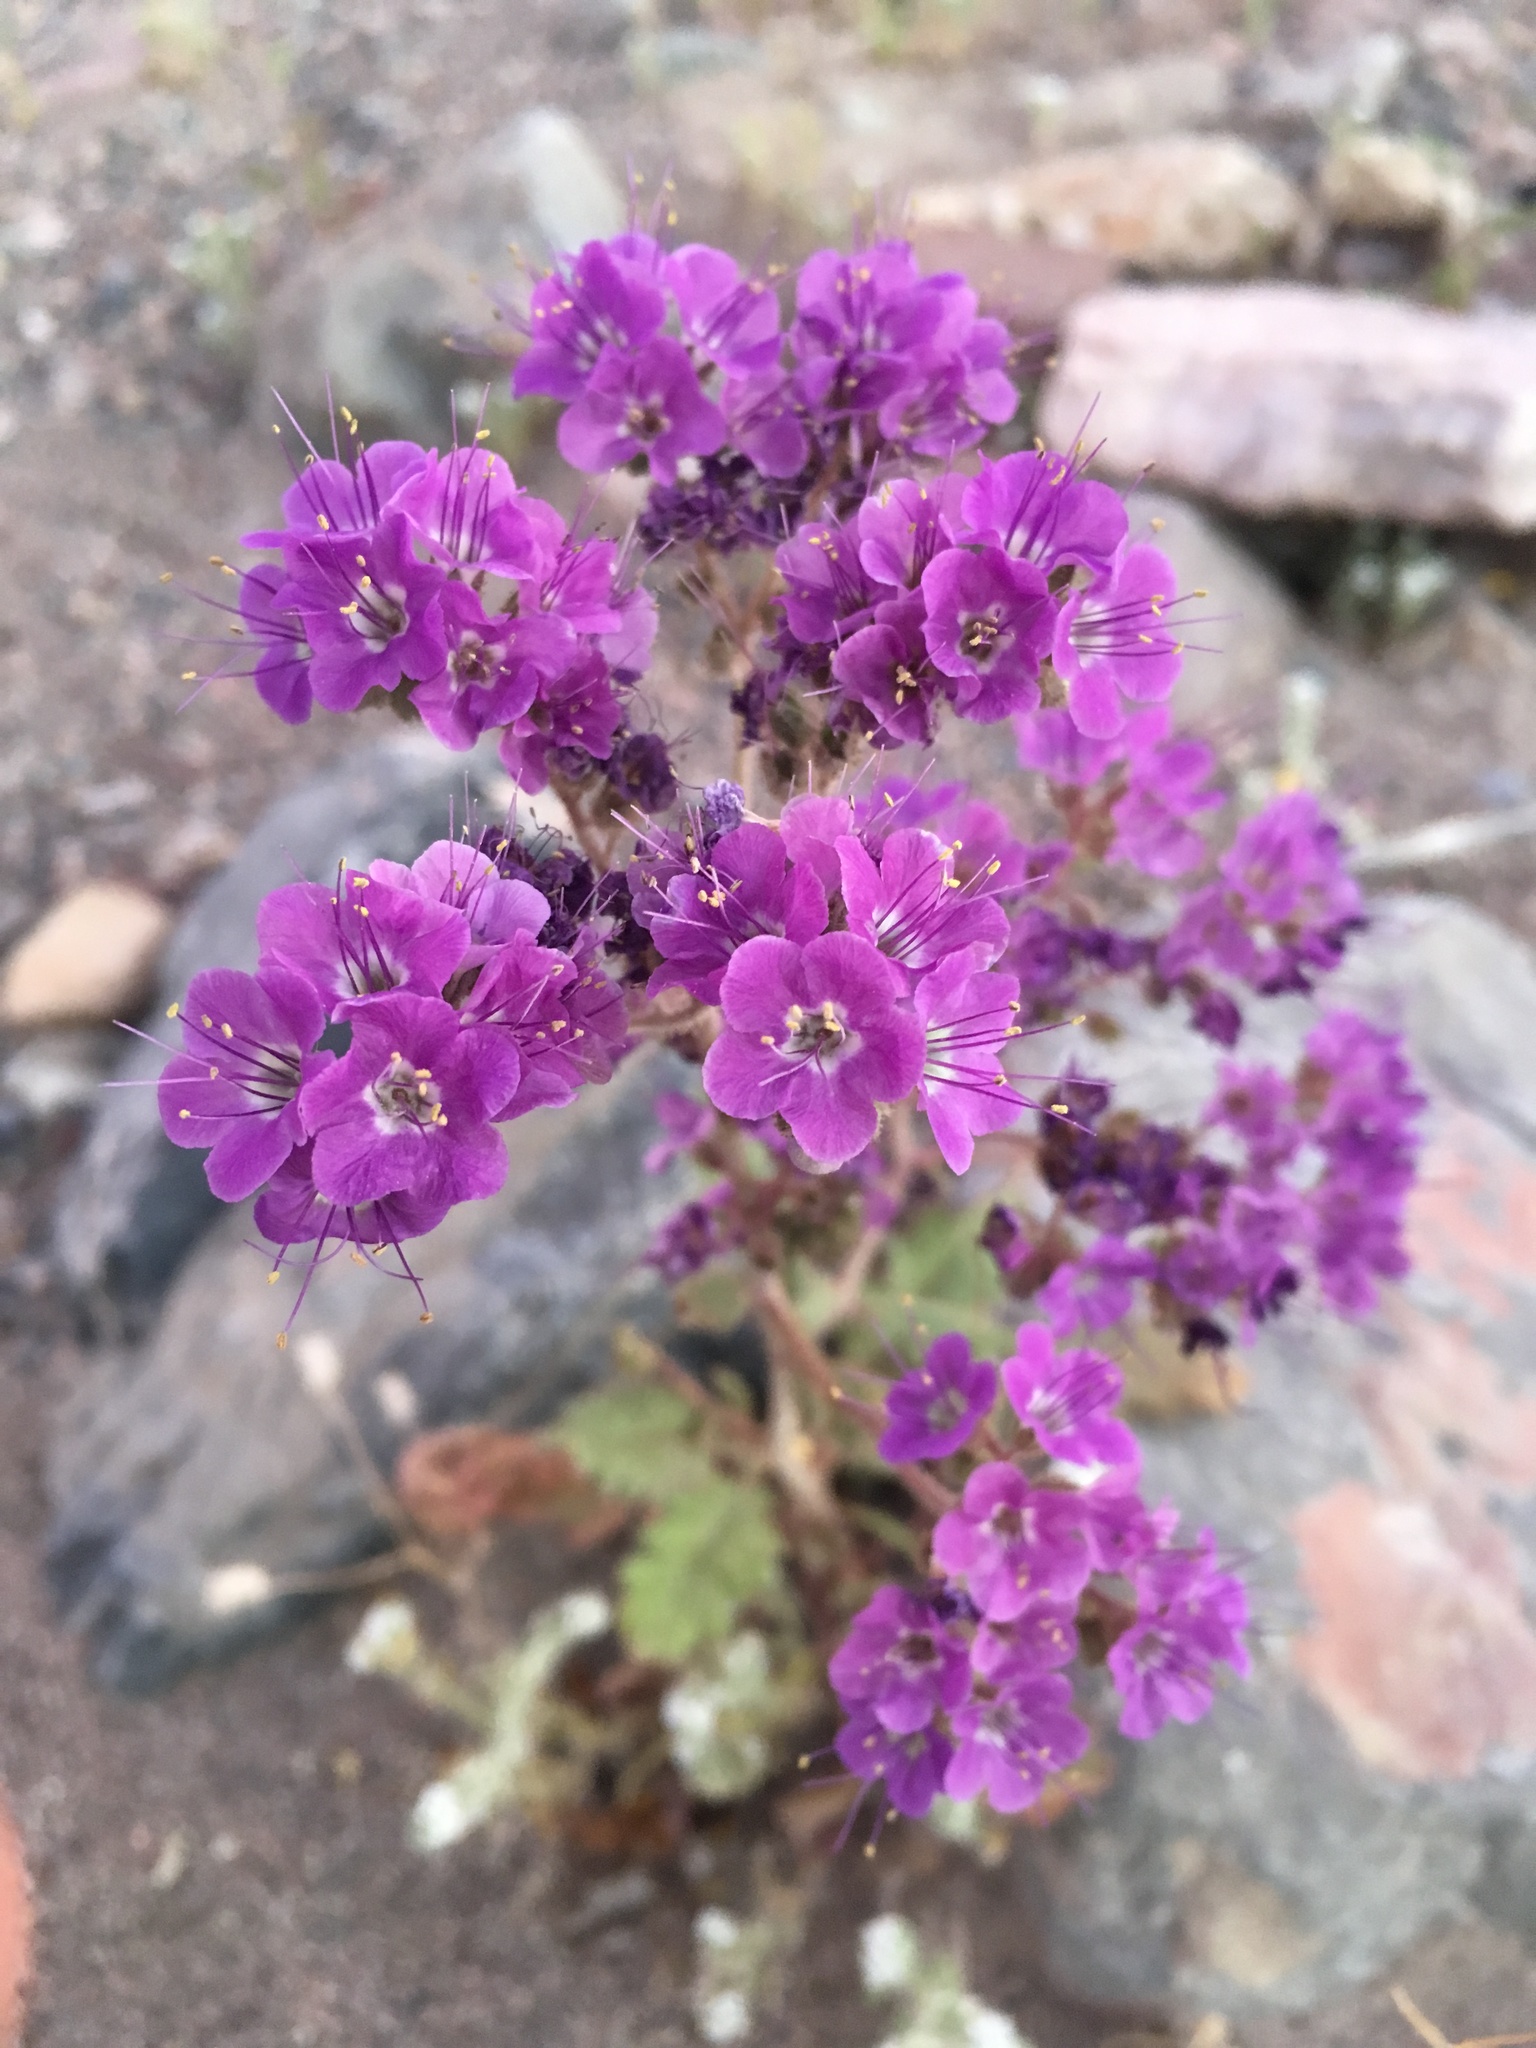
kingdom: Plantae
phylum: Tracheophyta
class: Magnoliopsida
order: Boraginales
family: Hydrophyllaceae
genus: Phacelia
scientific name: Phacelia crenulata
